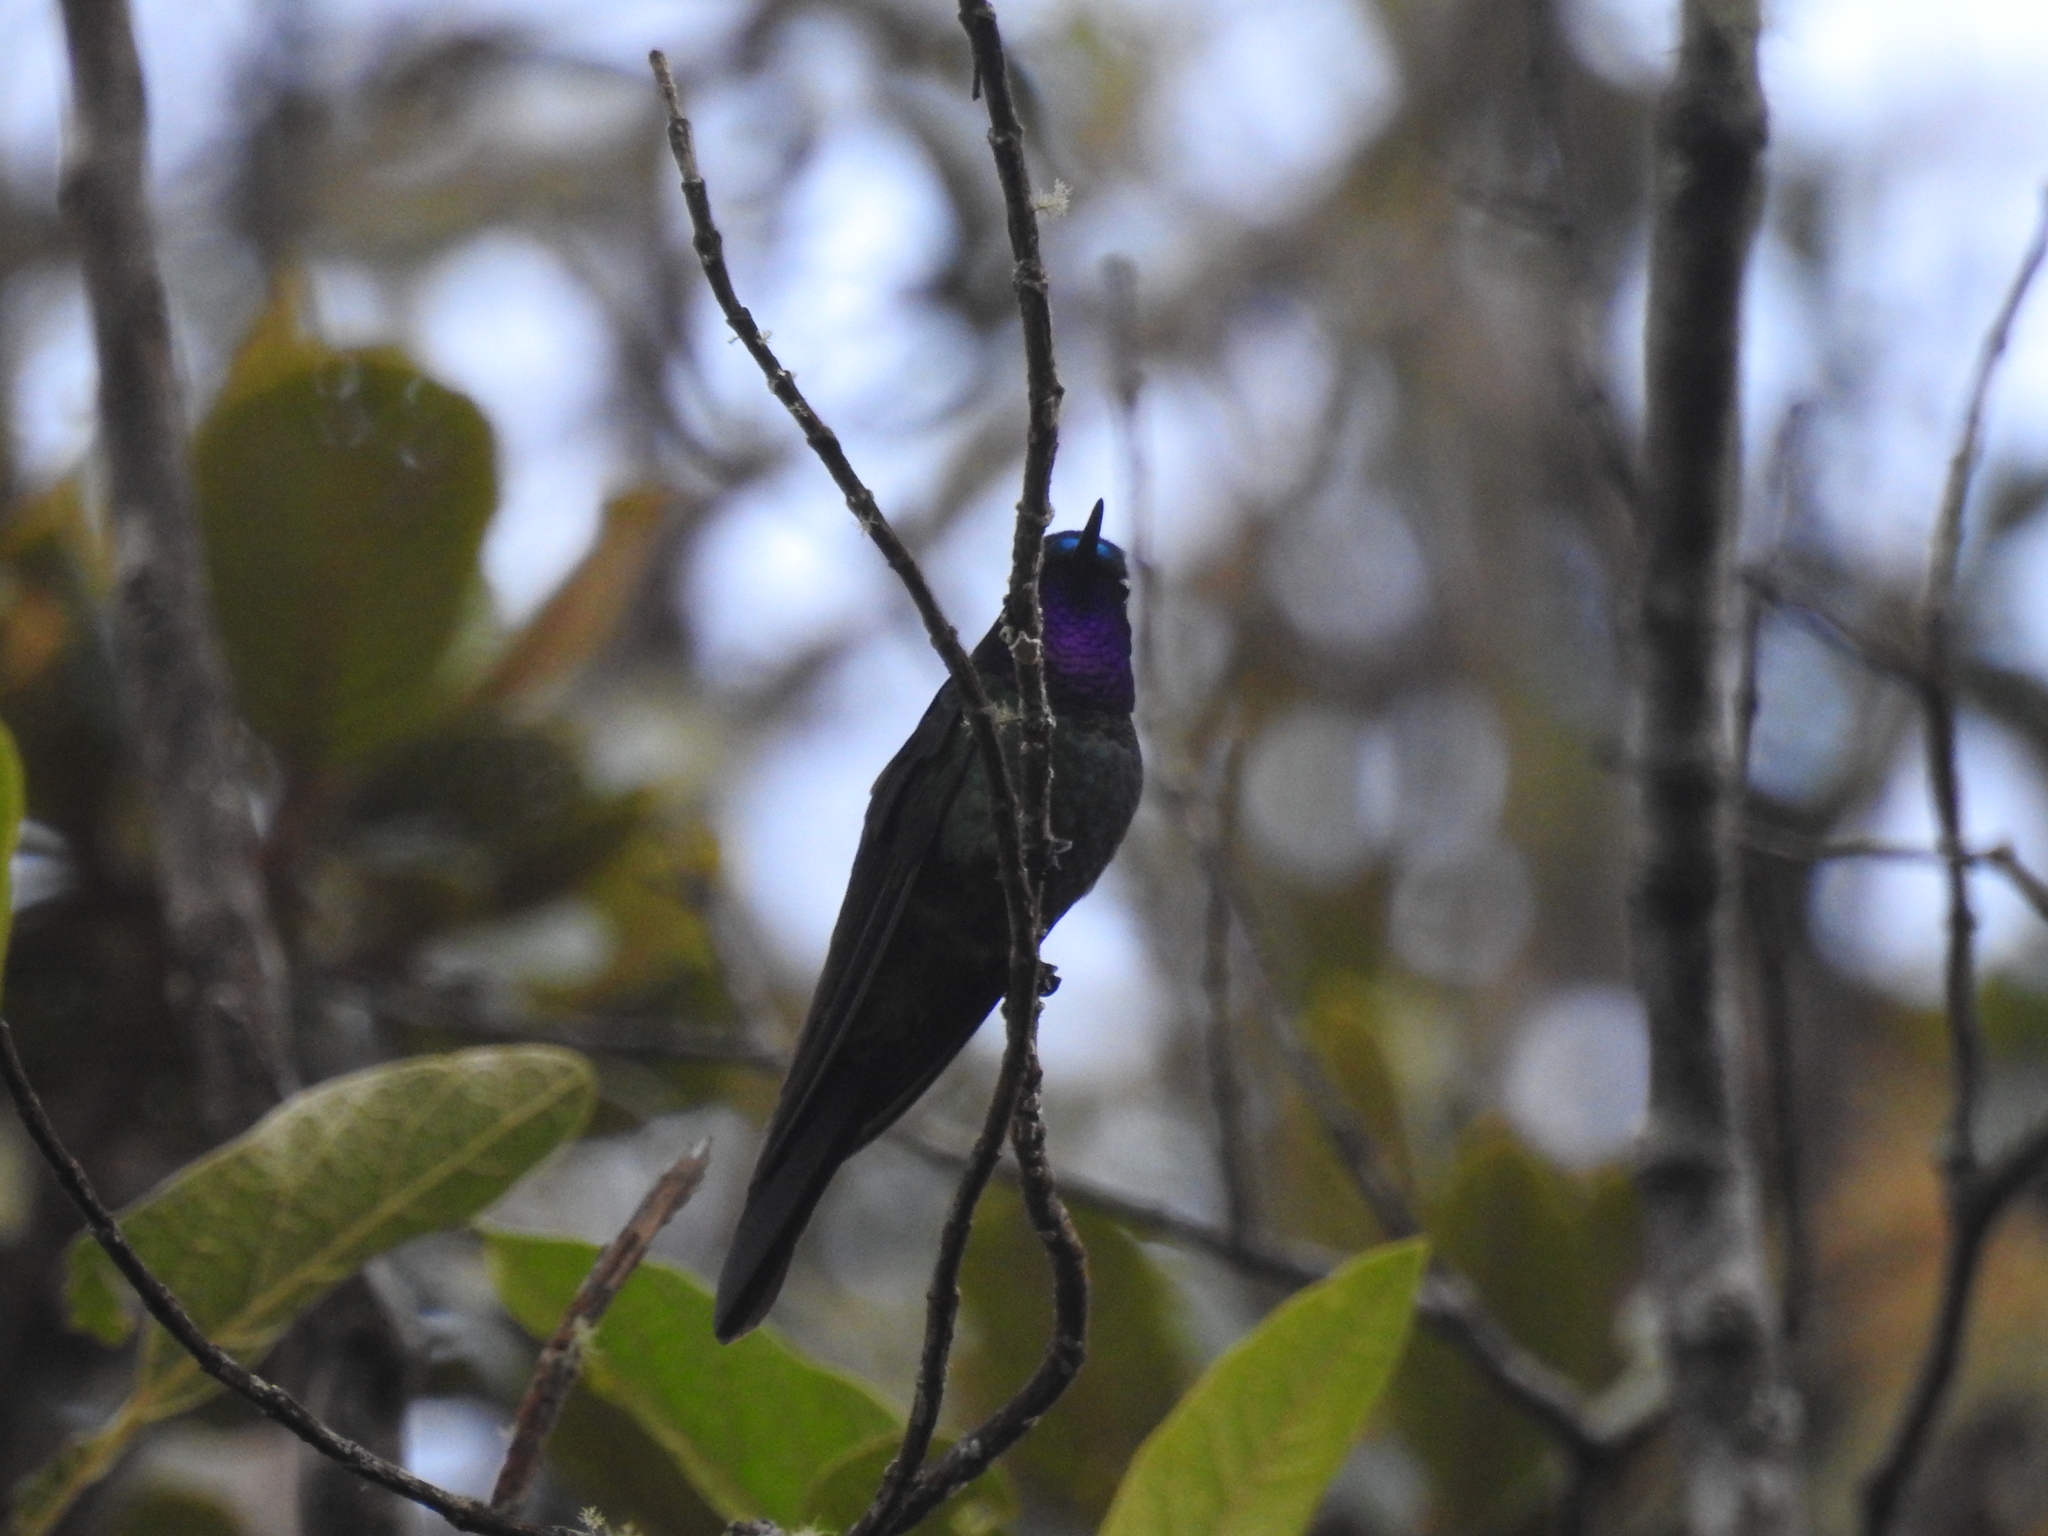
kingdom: Animalia
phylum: Chordata
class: Aves
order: Apodiformes
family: Trochilidae
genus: Heliangelus
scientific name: Heliangelus viola
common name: Purple-throated sunangel
